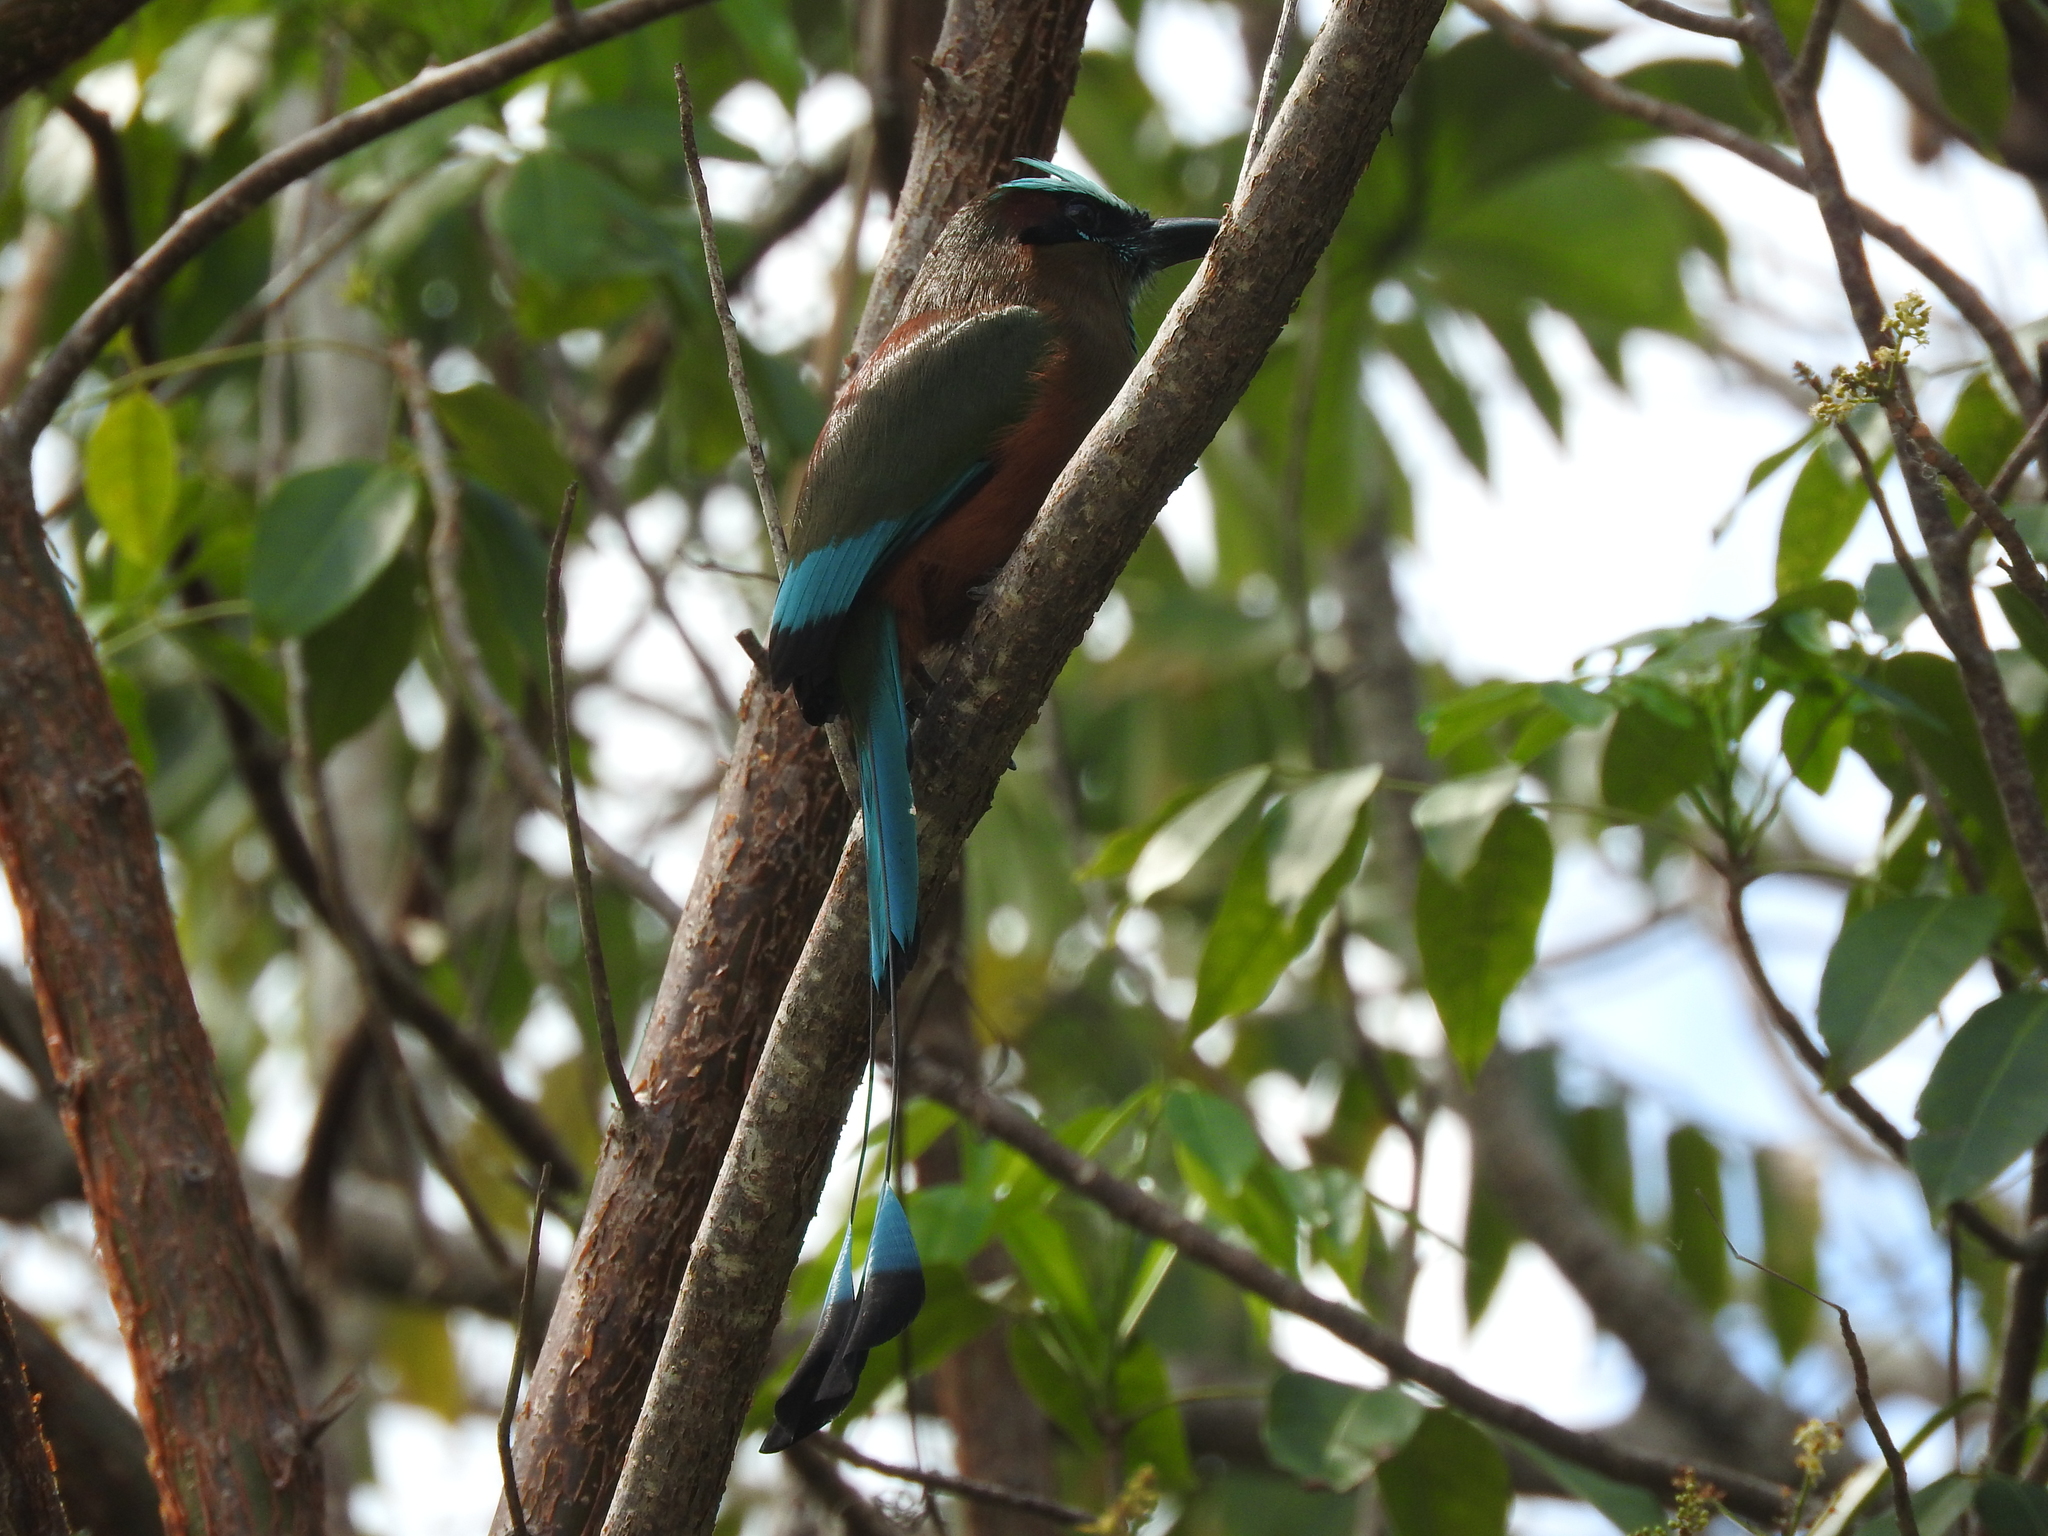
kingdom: Animalia
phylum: Chordata
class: Aves
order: Coraciiformes
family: Momotidae
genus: Eumomota
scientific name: Eumomota superciliosa
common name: Turquoise-browed motmot
